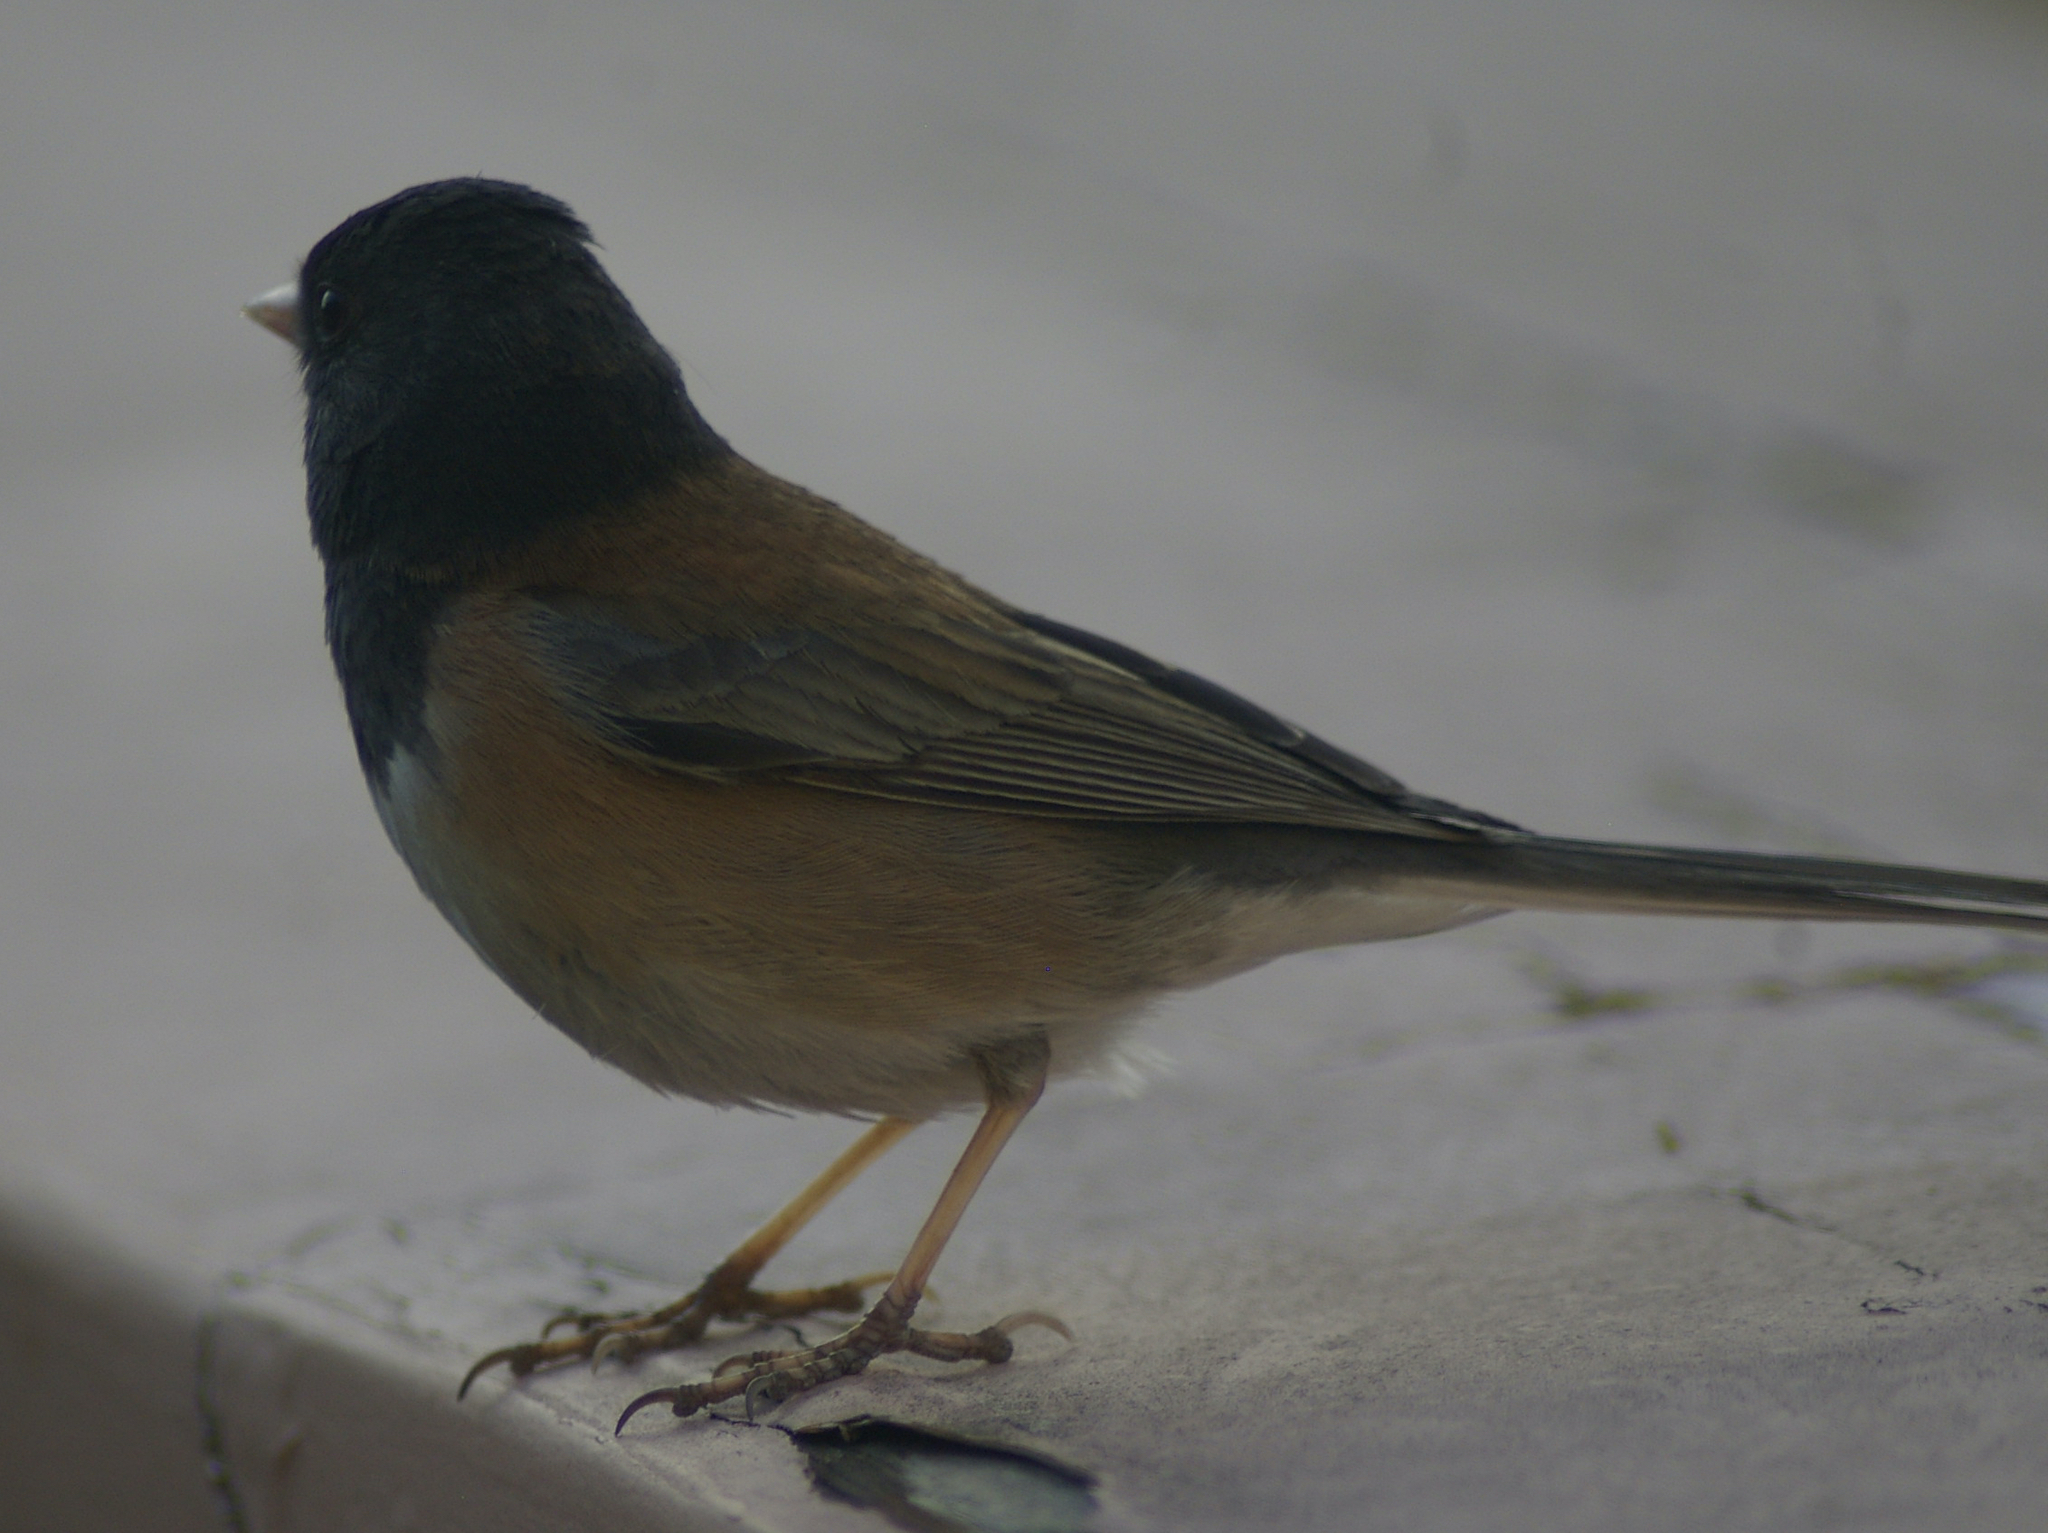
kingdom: Animalia
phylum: Chordata
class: Aves
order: Passeriformes
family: Passerellidae
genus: Junco
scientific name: Junco hyemalis
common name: Dark-eyed junco
